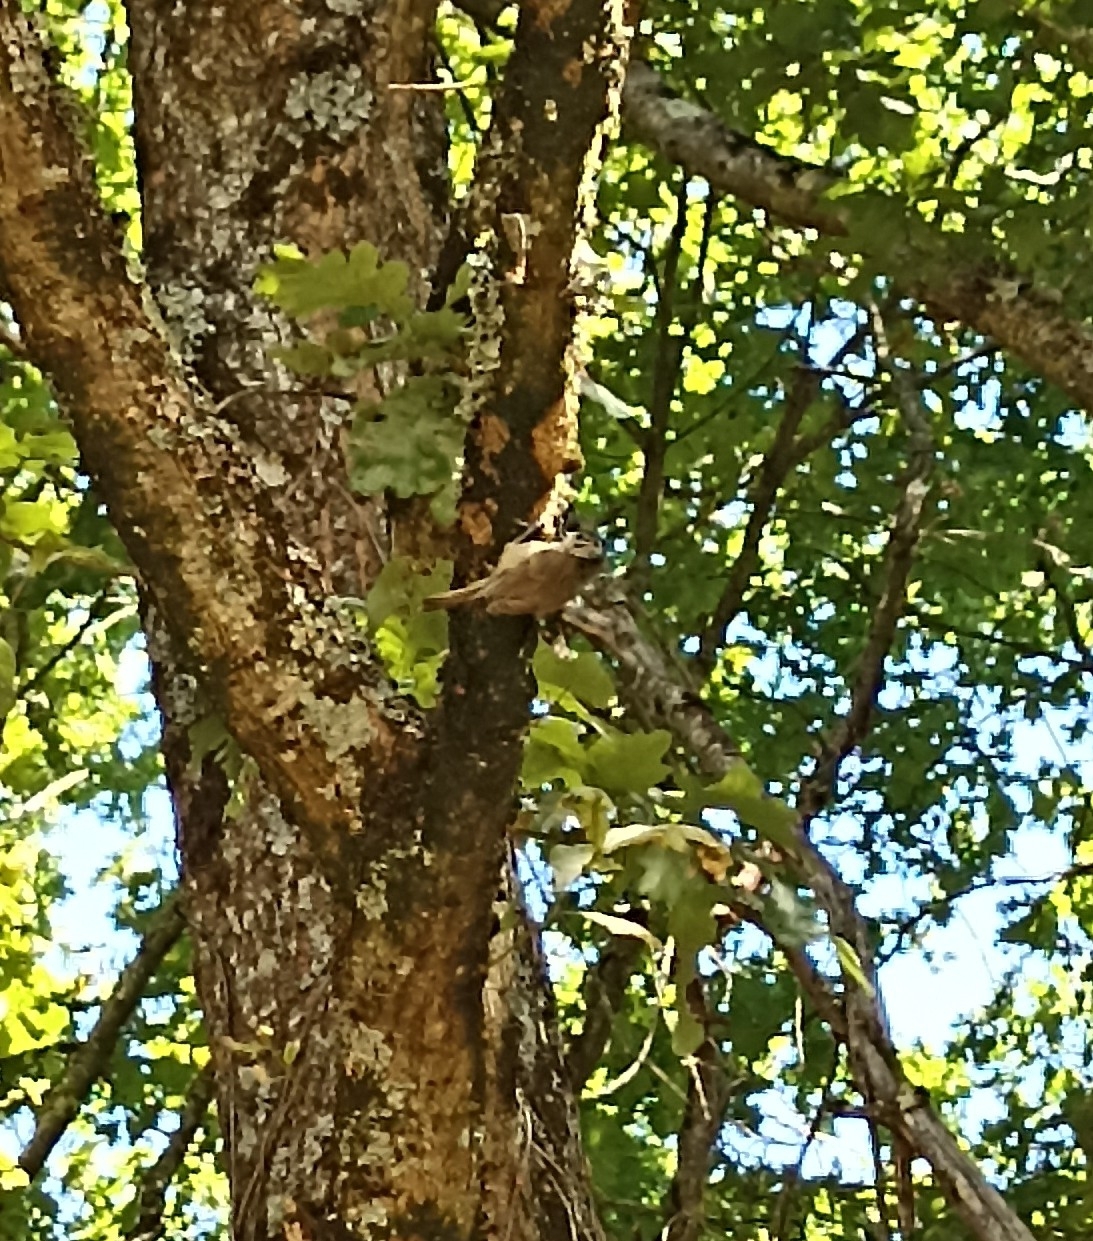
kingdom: Animalia
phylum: Chordata
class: Aves
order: Passeriformes
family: Paridae
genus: Lophophanes
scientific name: Lophophanes cristatus
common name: European crested tit
